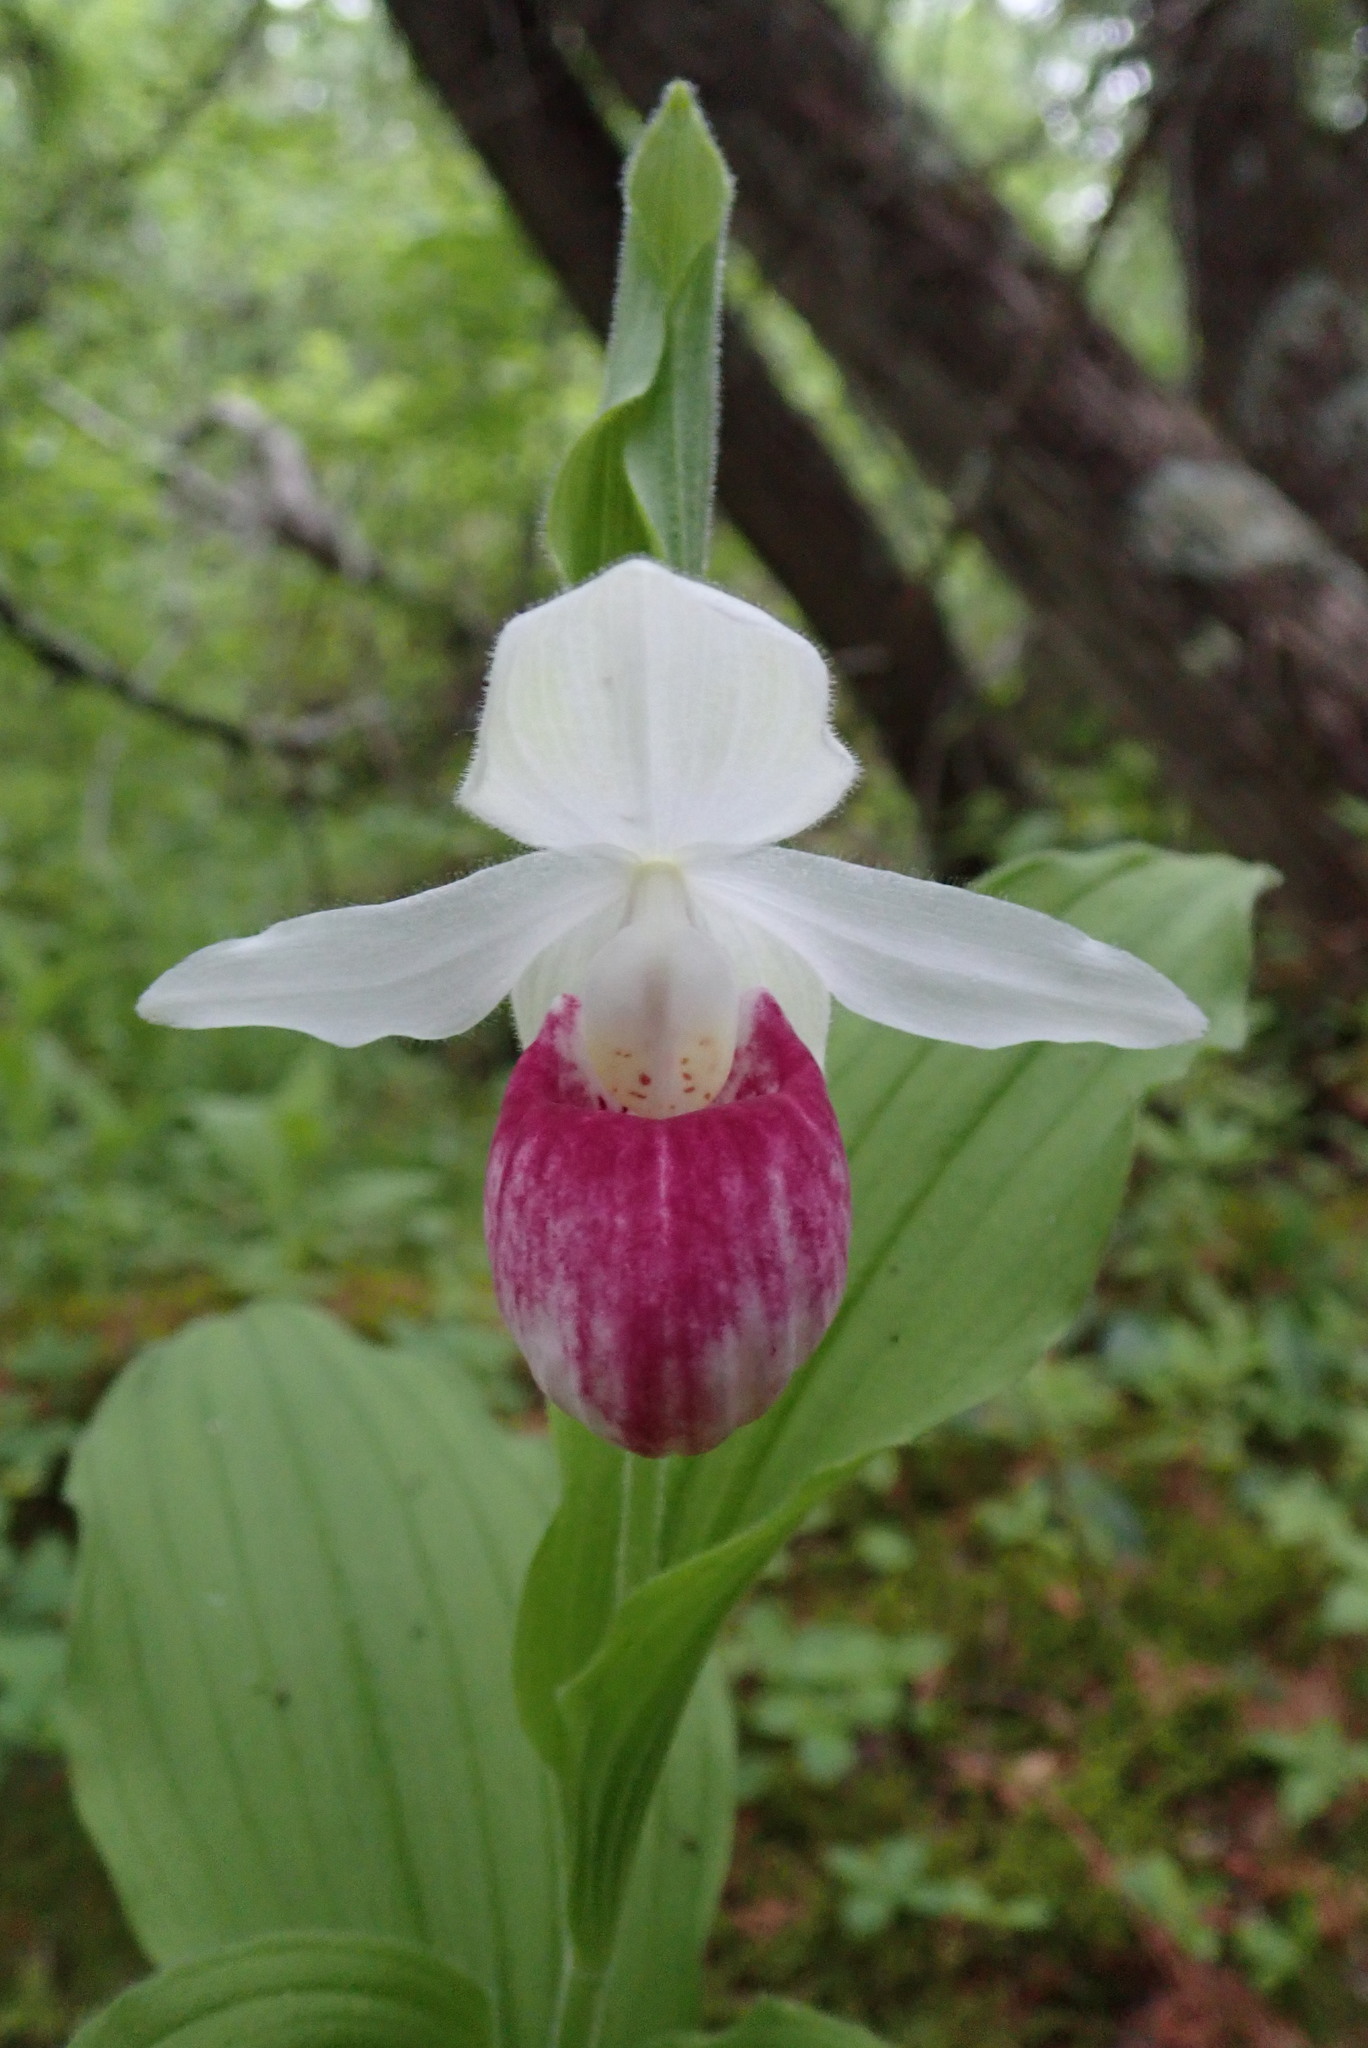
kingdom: Plantae
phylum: Tracheophyta
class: Liliopsida
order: Asparagales
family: Orchidaceae
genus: Cypripedium
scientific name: Cypripedium reginae
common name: Queen lady's-slipper
